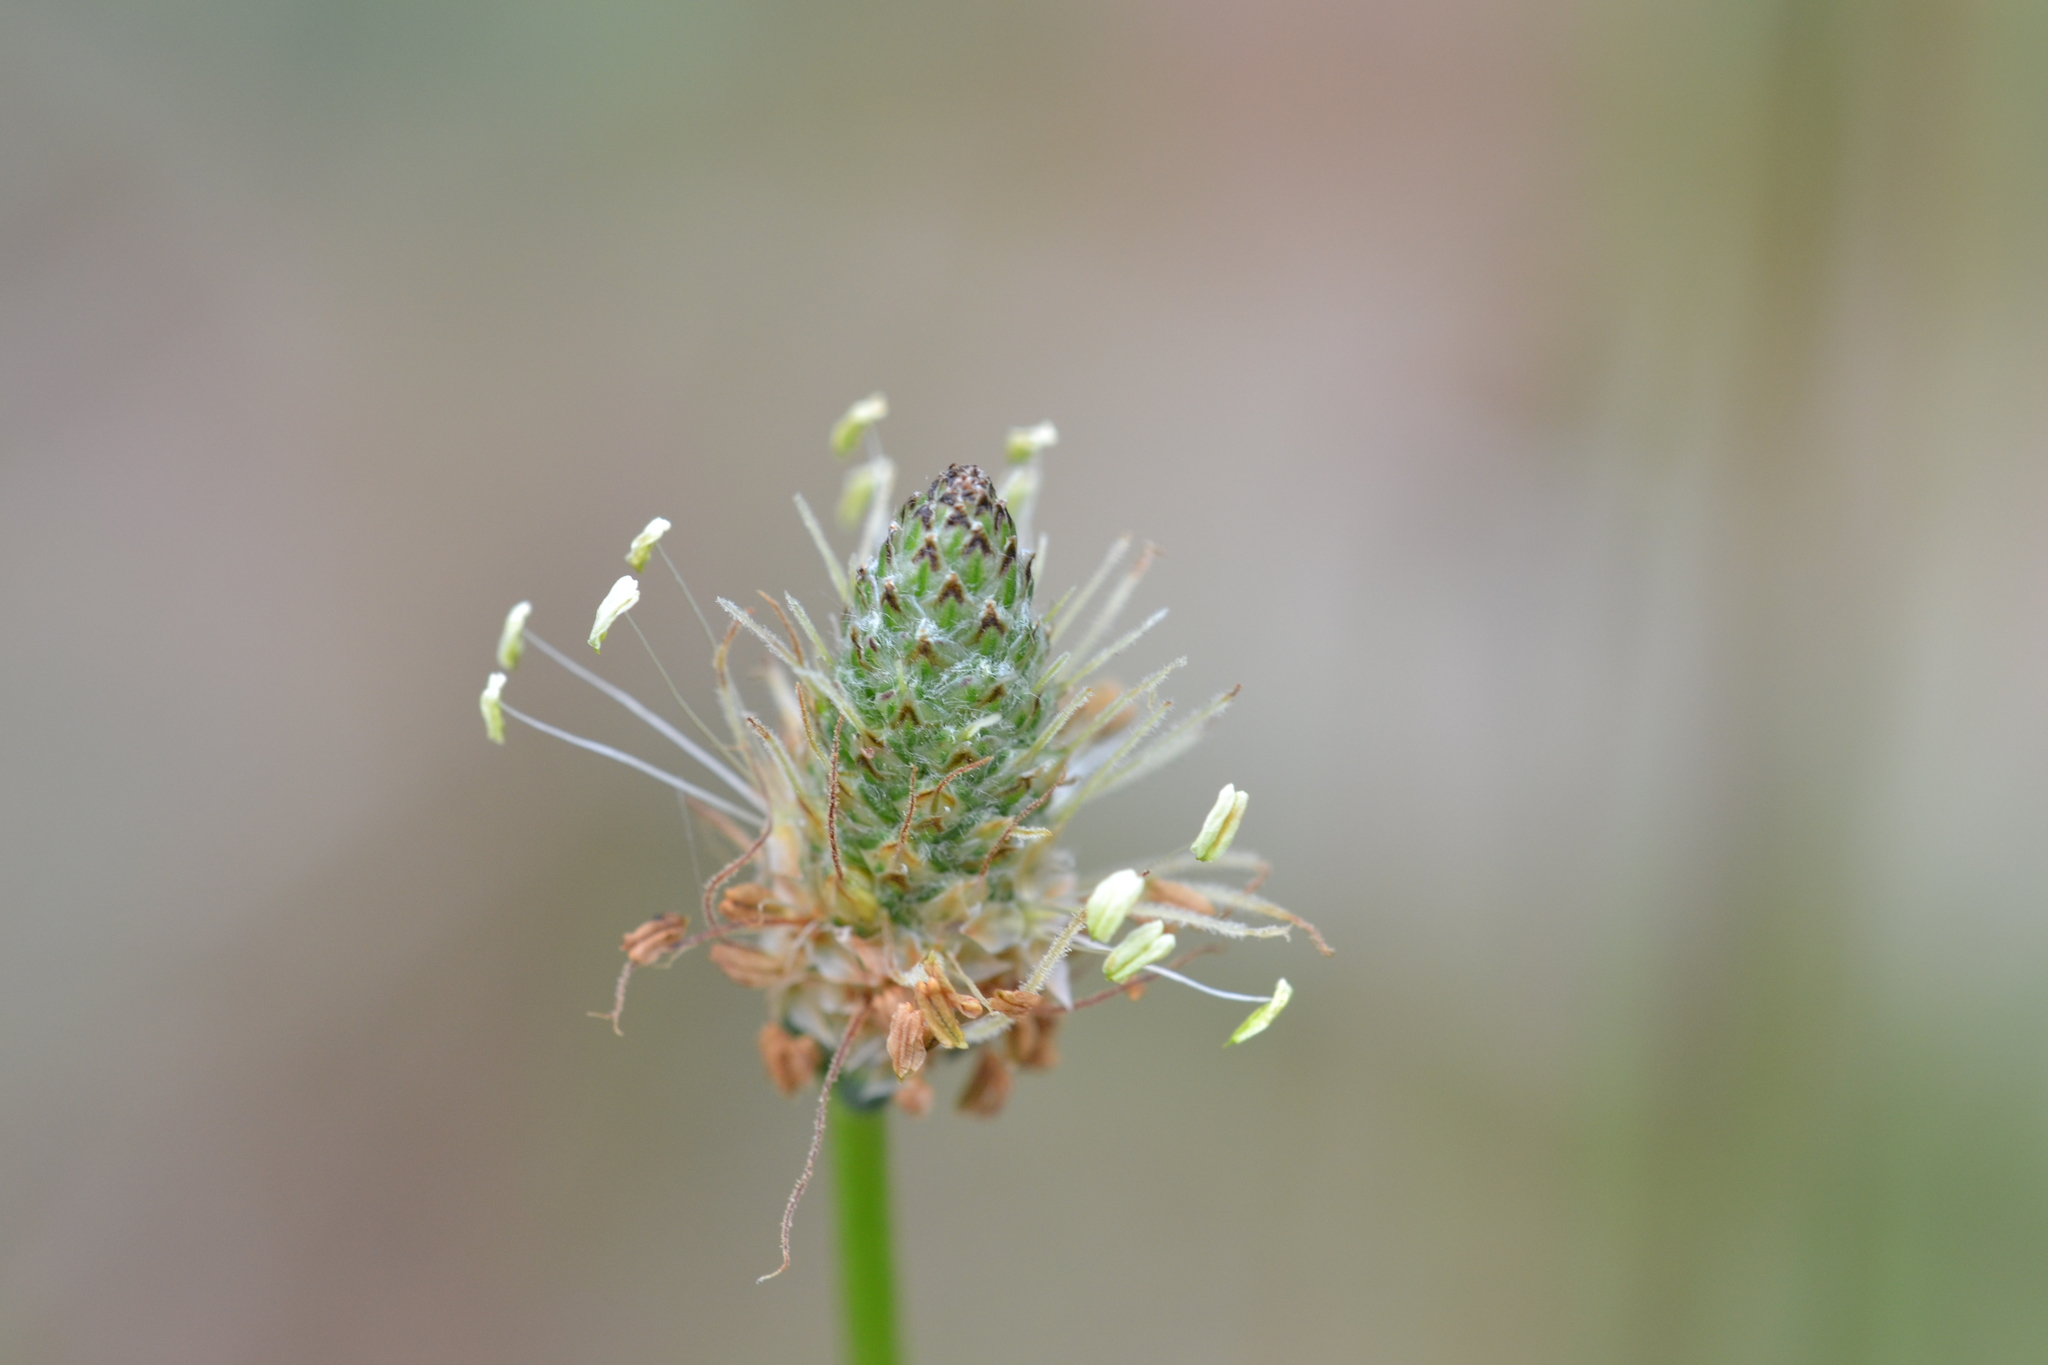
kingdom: Plantae
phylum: Tracheophyta
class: Magnoliopsida
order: Lamiales
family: Plantaginaceae
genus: Plantago
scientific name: Plantago lanceolata
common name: Ribwort plantain
